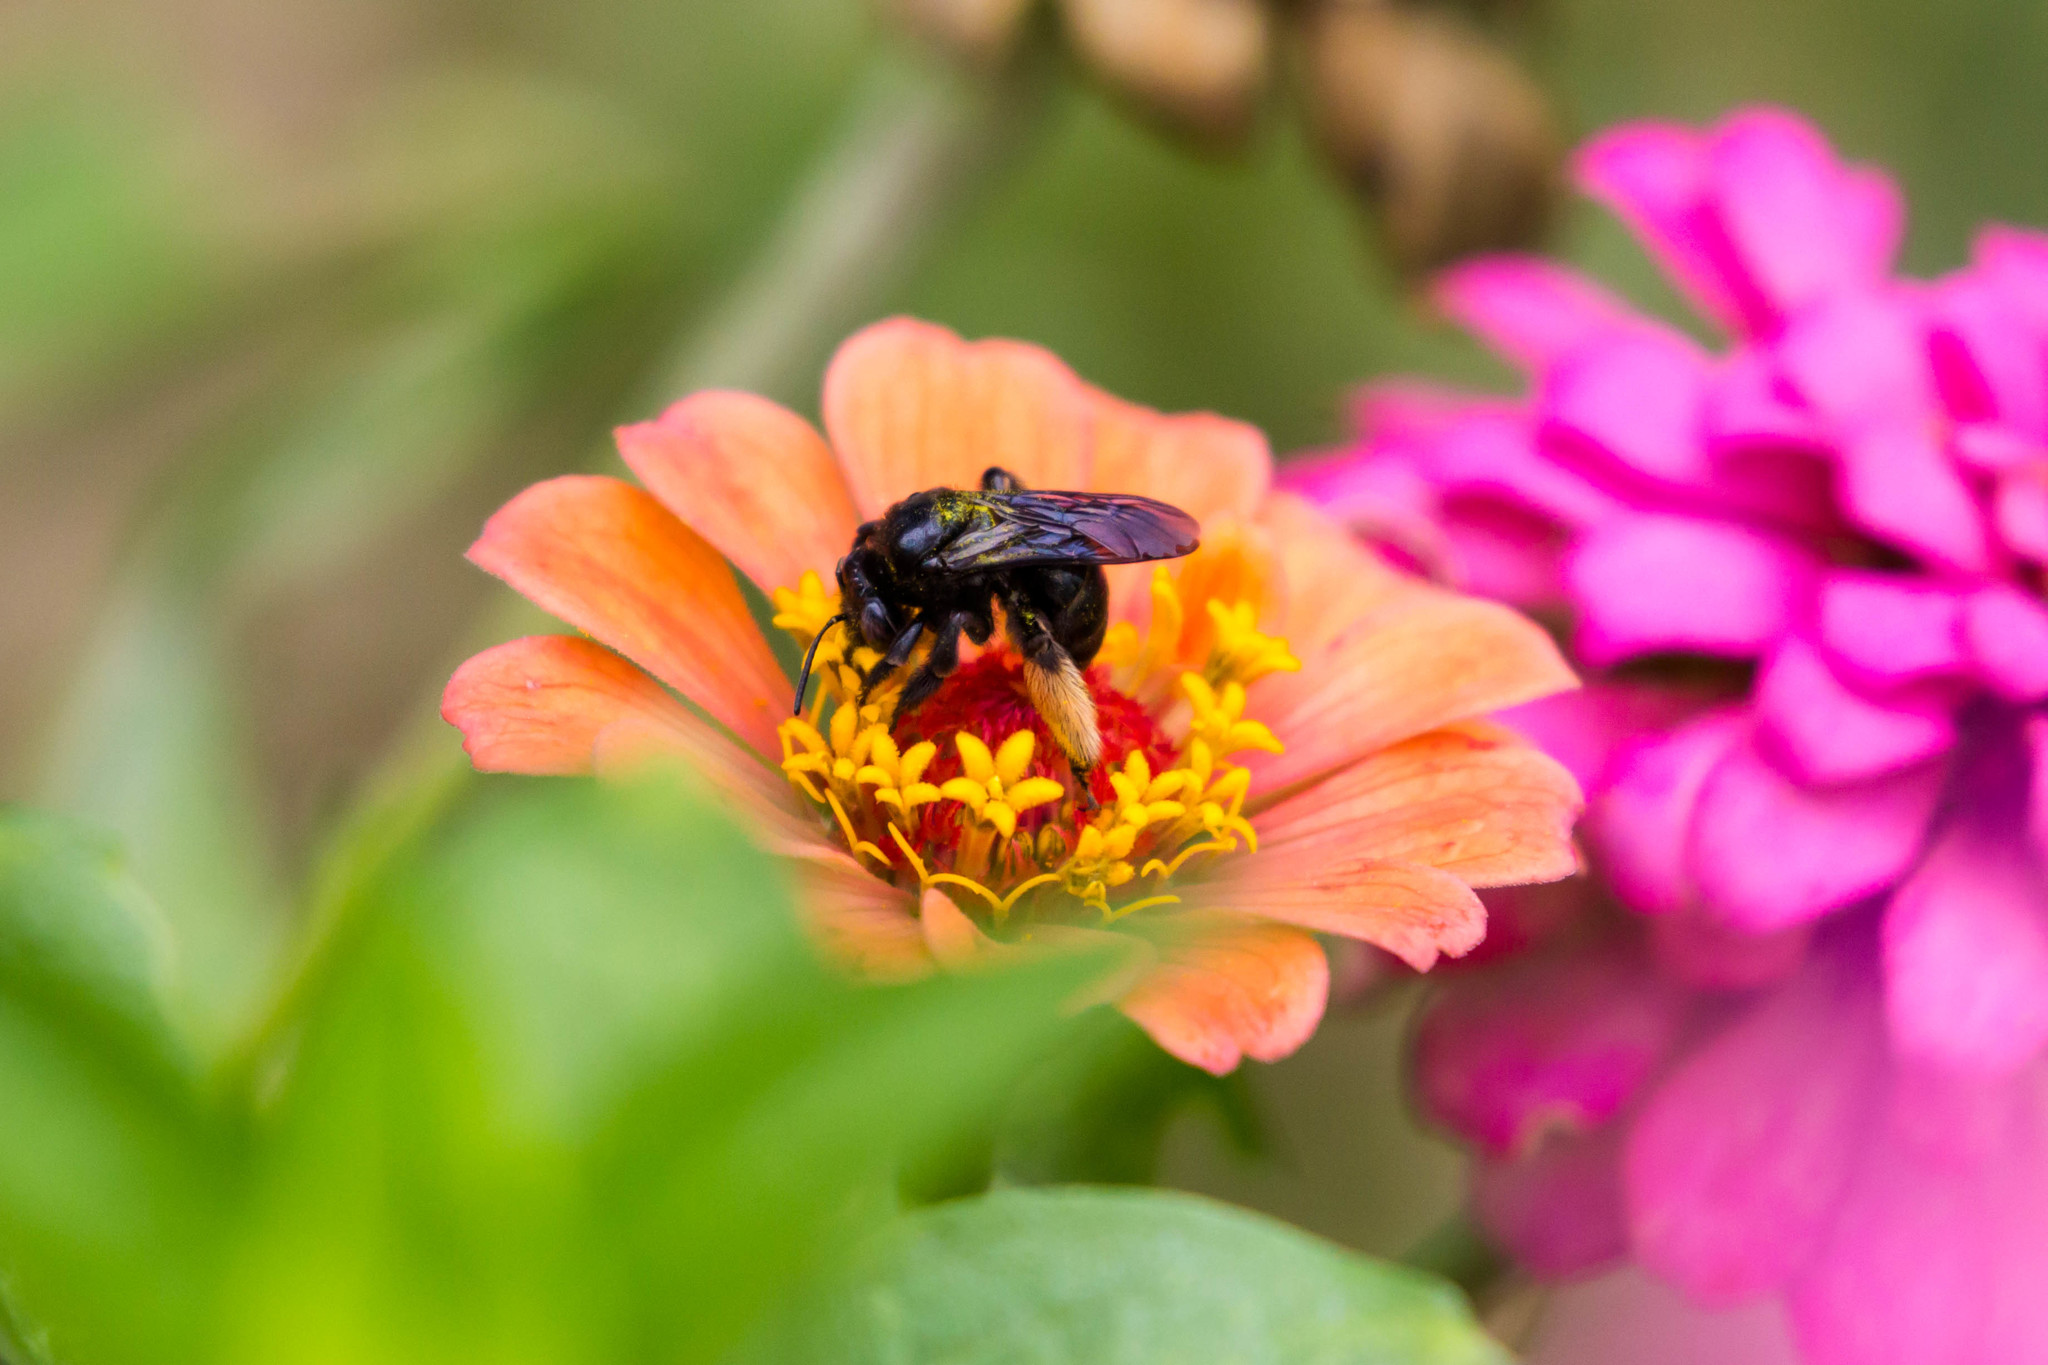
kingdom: Animalia
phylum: Arthropoda
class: Insecta
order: Hymenoptera
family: Apidae
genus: Melissodes
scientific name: Melissodes bimaculatus
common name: Two-spotted long-horned bee
